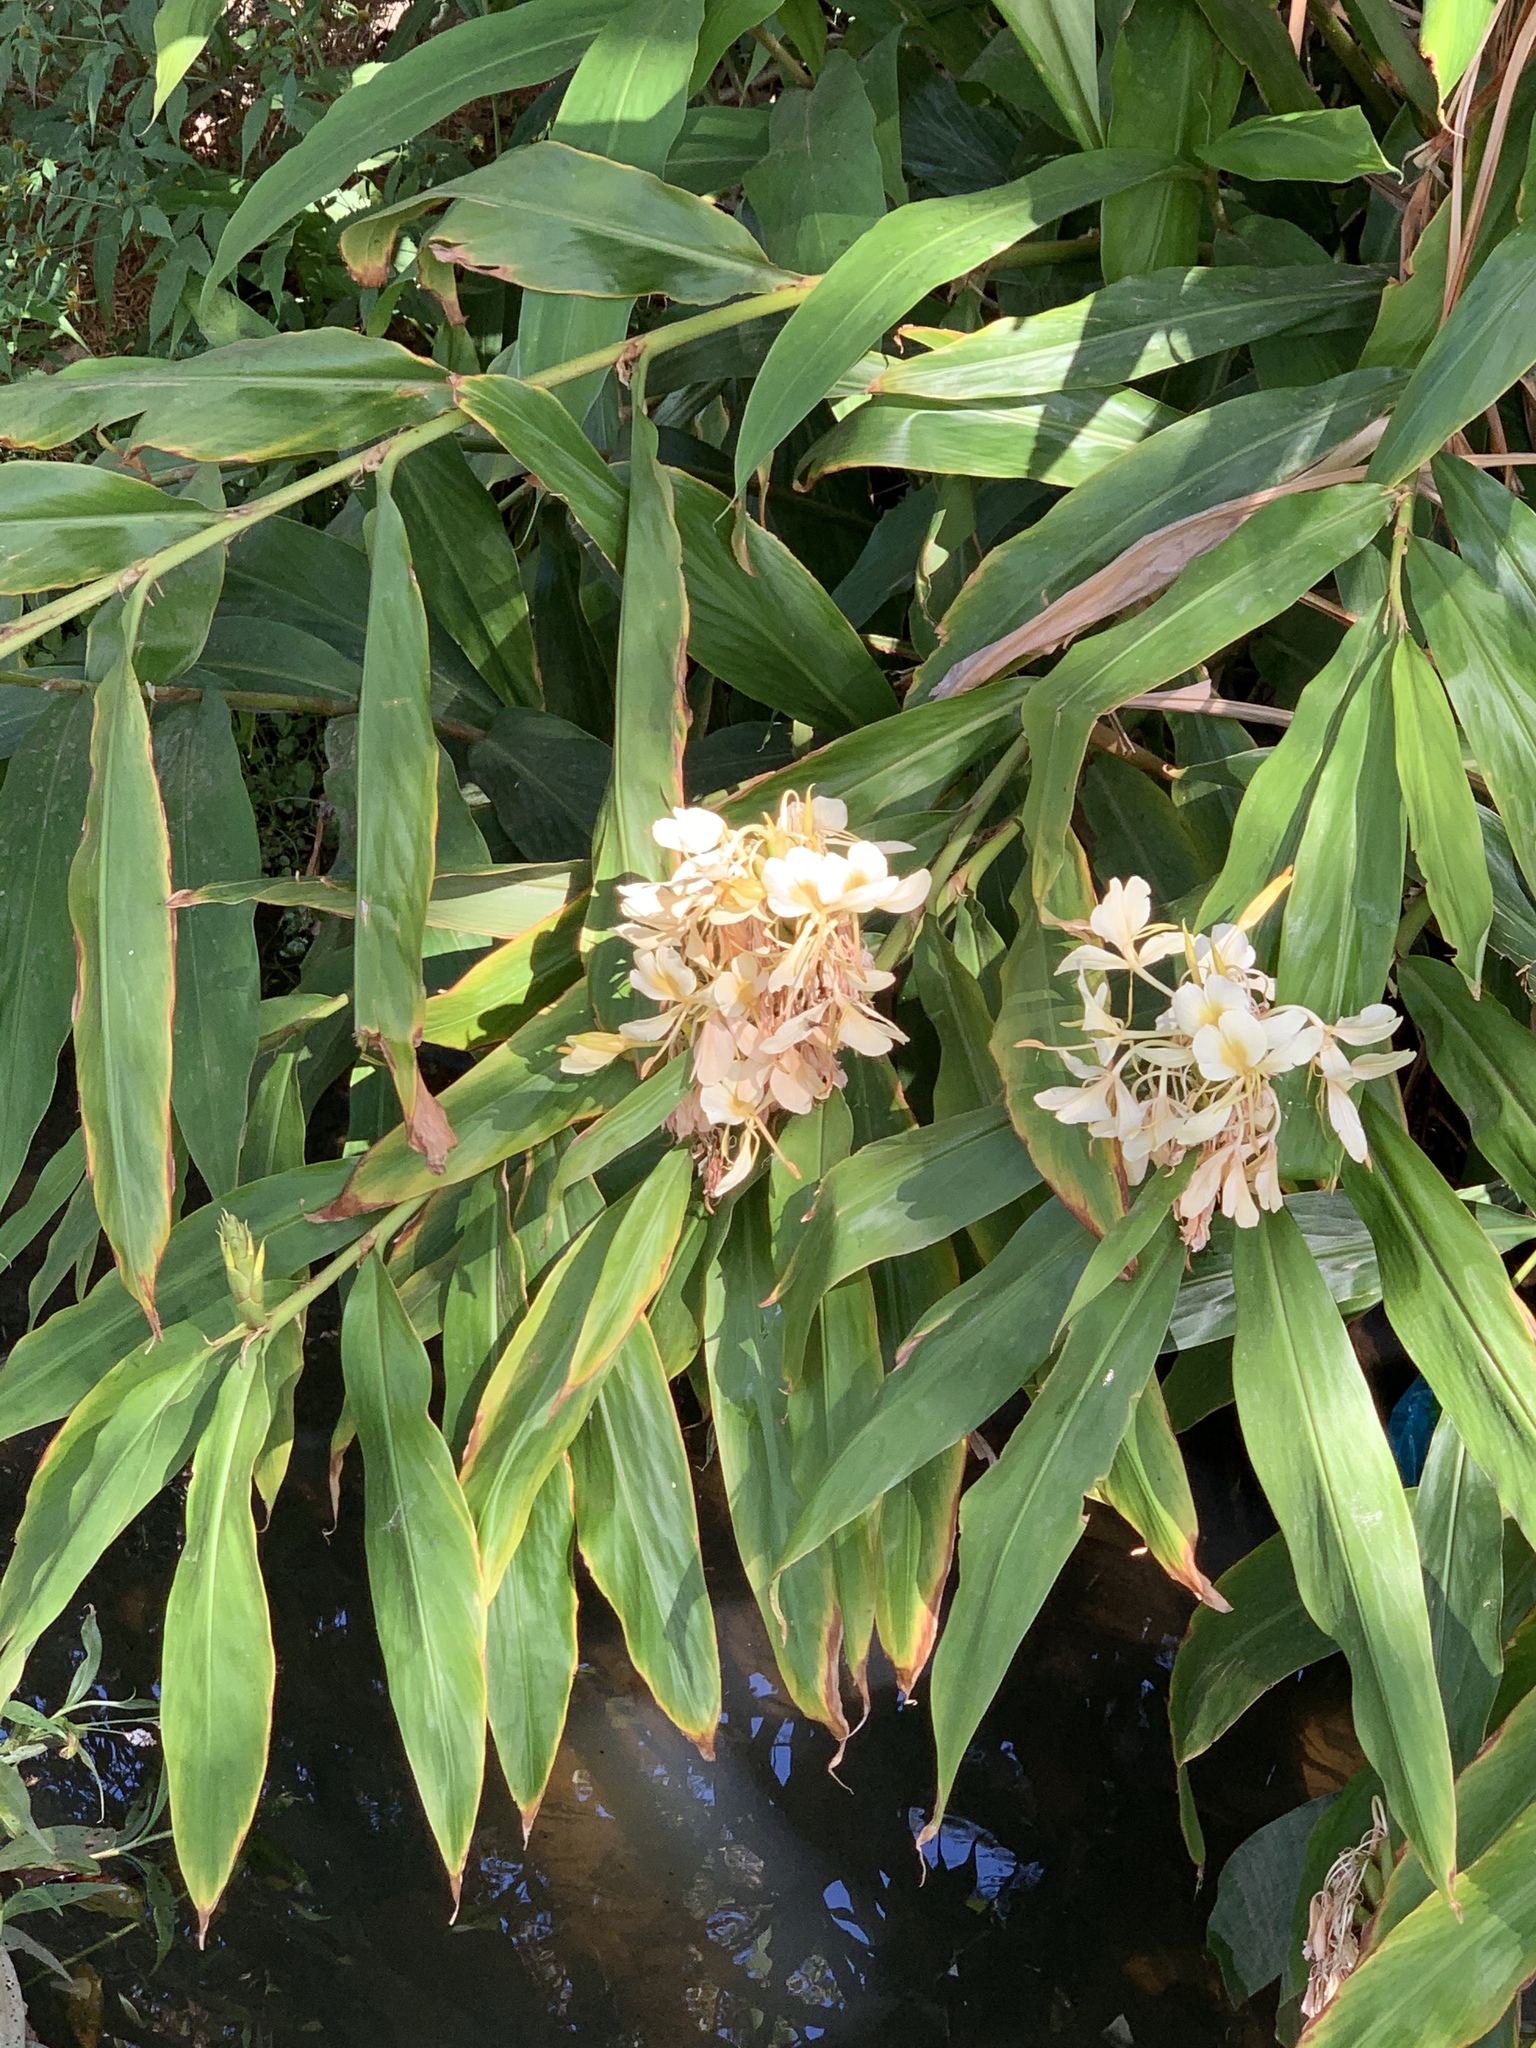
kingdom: Plantae
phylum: Tracheophyta
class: Liliopsida
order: Zingiberales
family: Zingiberaceae
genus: Hedychium
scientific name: Hedychium flavescens
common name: Yellow ginger
